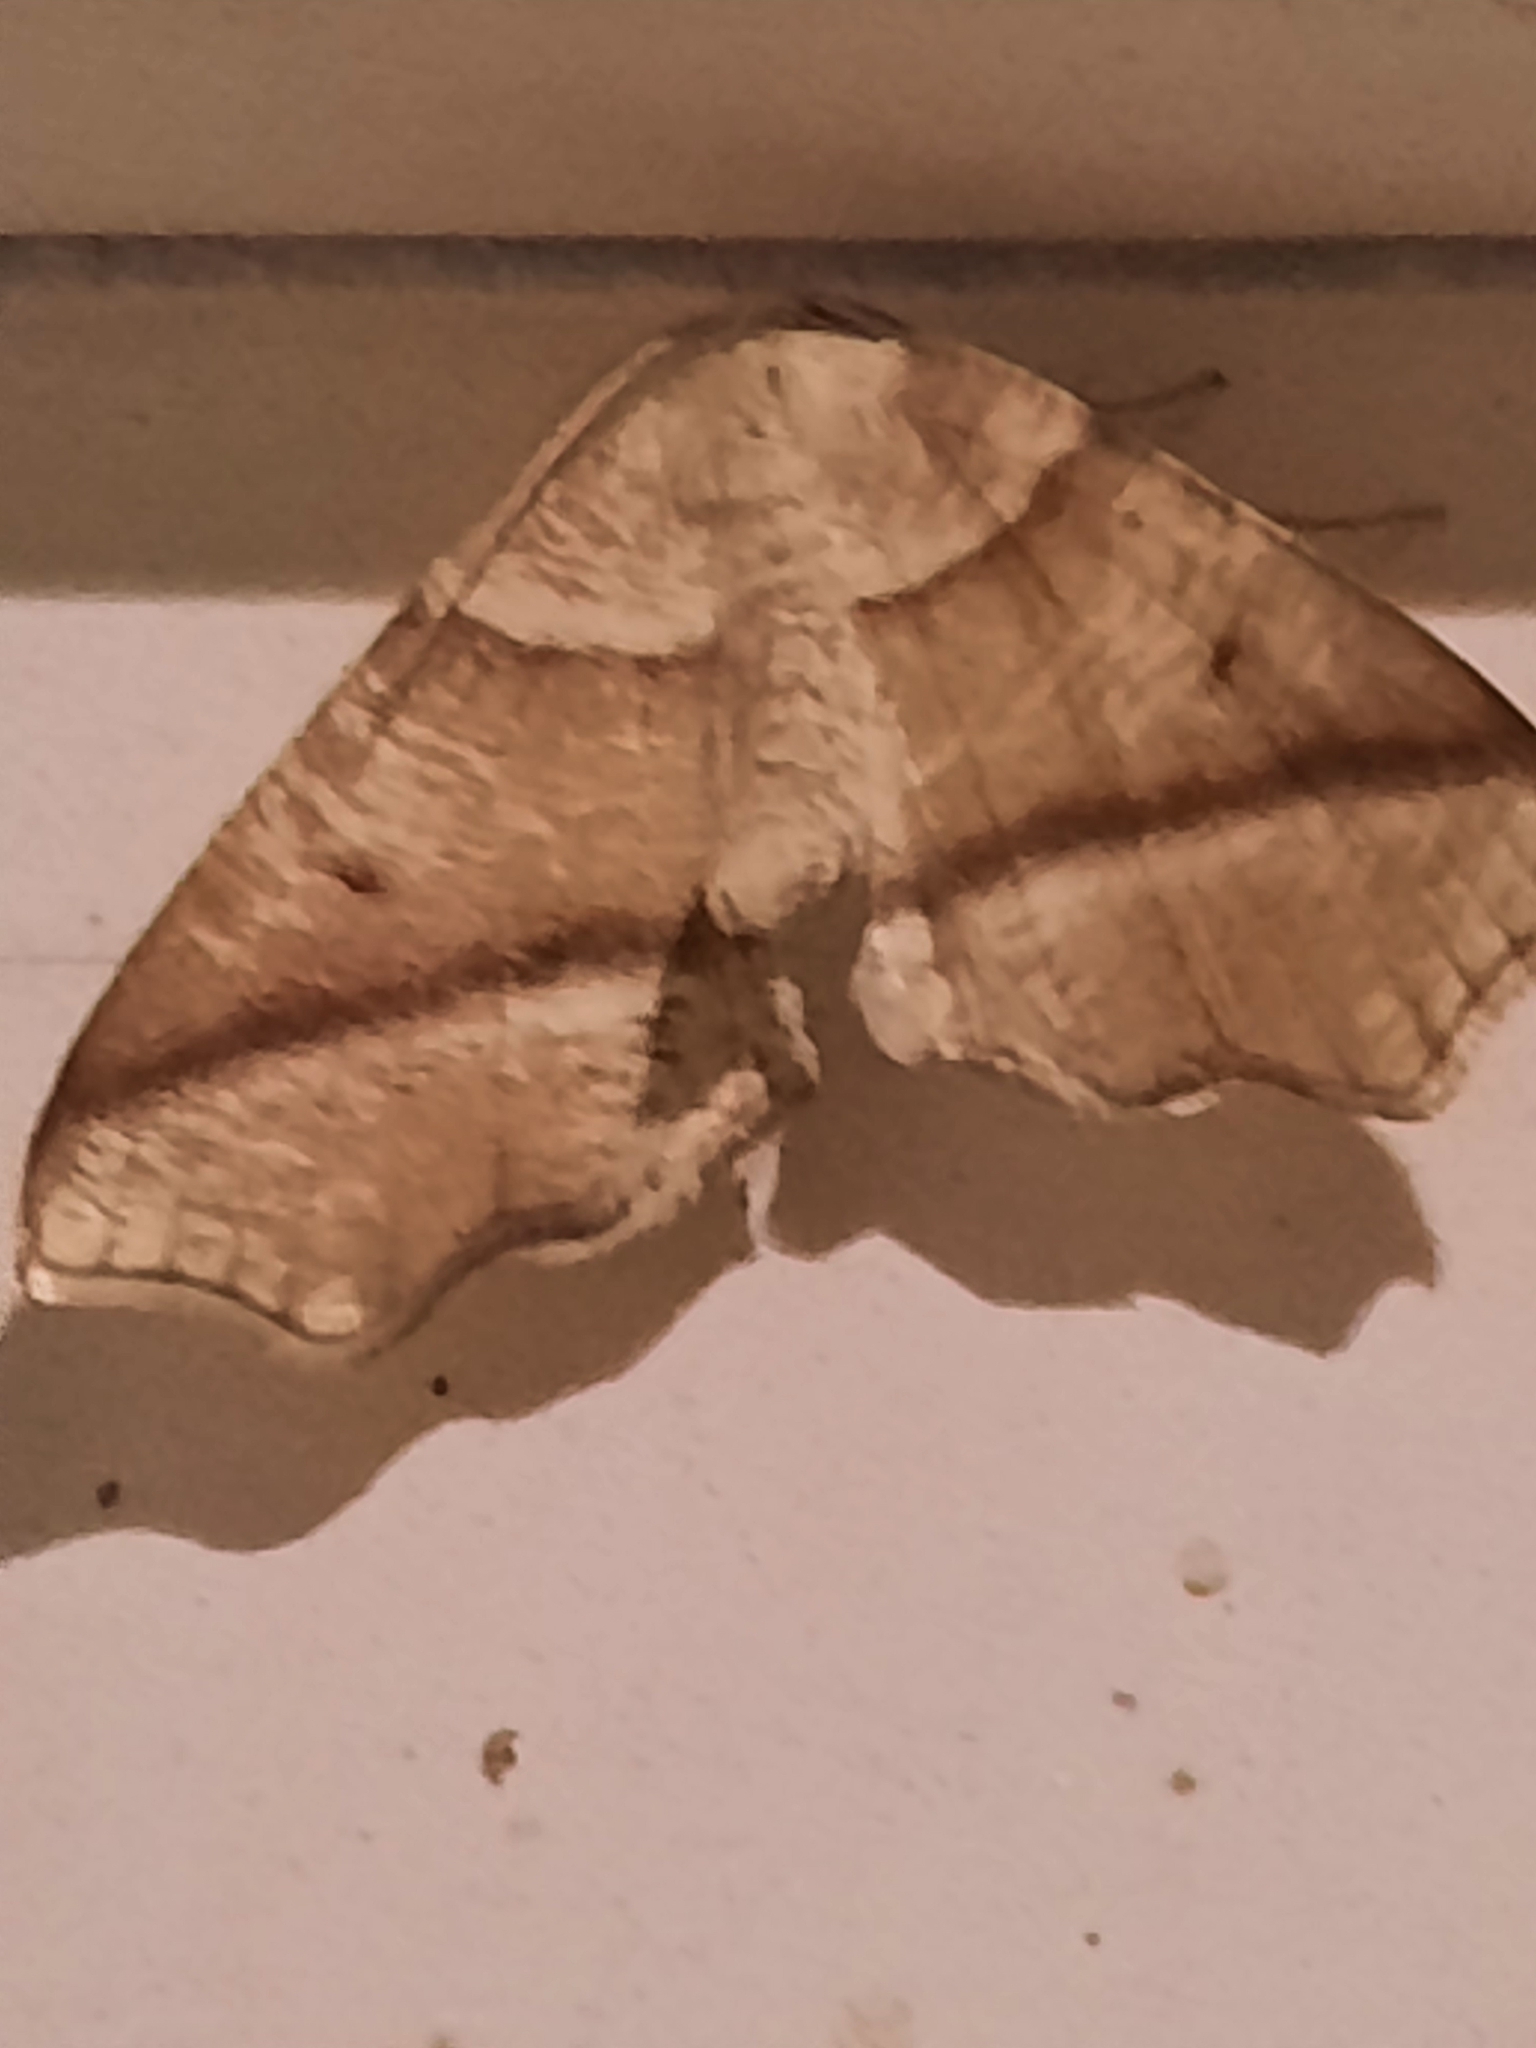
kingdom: Animalia
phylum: Arthropoda
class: Insecta
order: Lepidoptera
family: Geometridae
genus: Plagodis
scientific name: Plagodis alcoolaria
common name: Hollow-spotted plagodis
